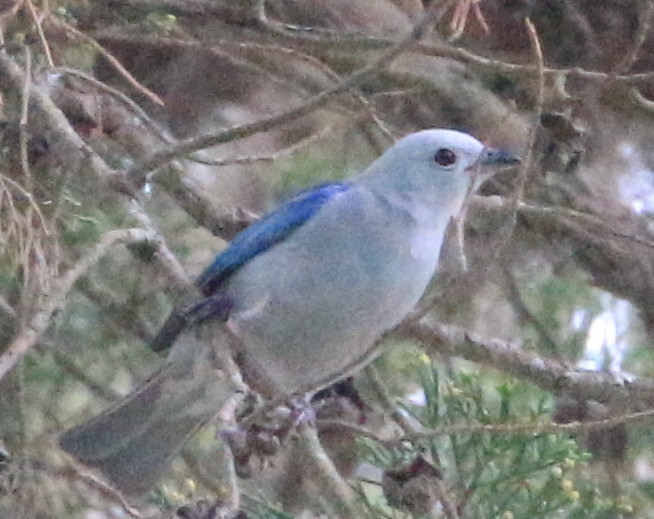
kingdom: Animalia
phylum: Chordata
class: Aves
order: Passeriformes
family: Thraupidae
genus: Thraupis
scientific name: Thraupis episcopus
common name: Blue-grey tanager
